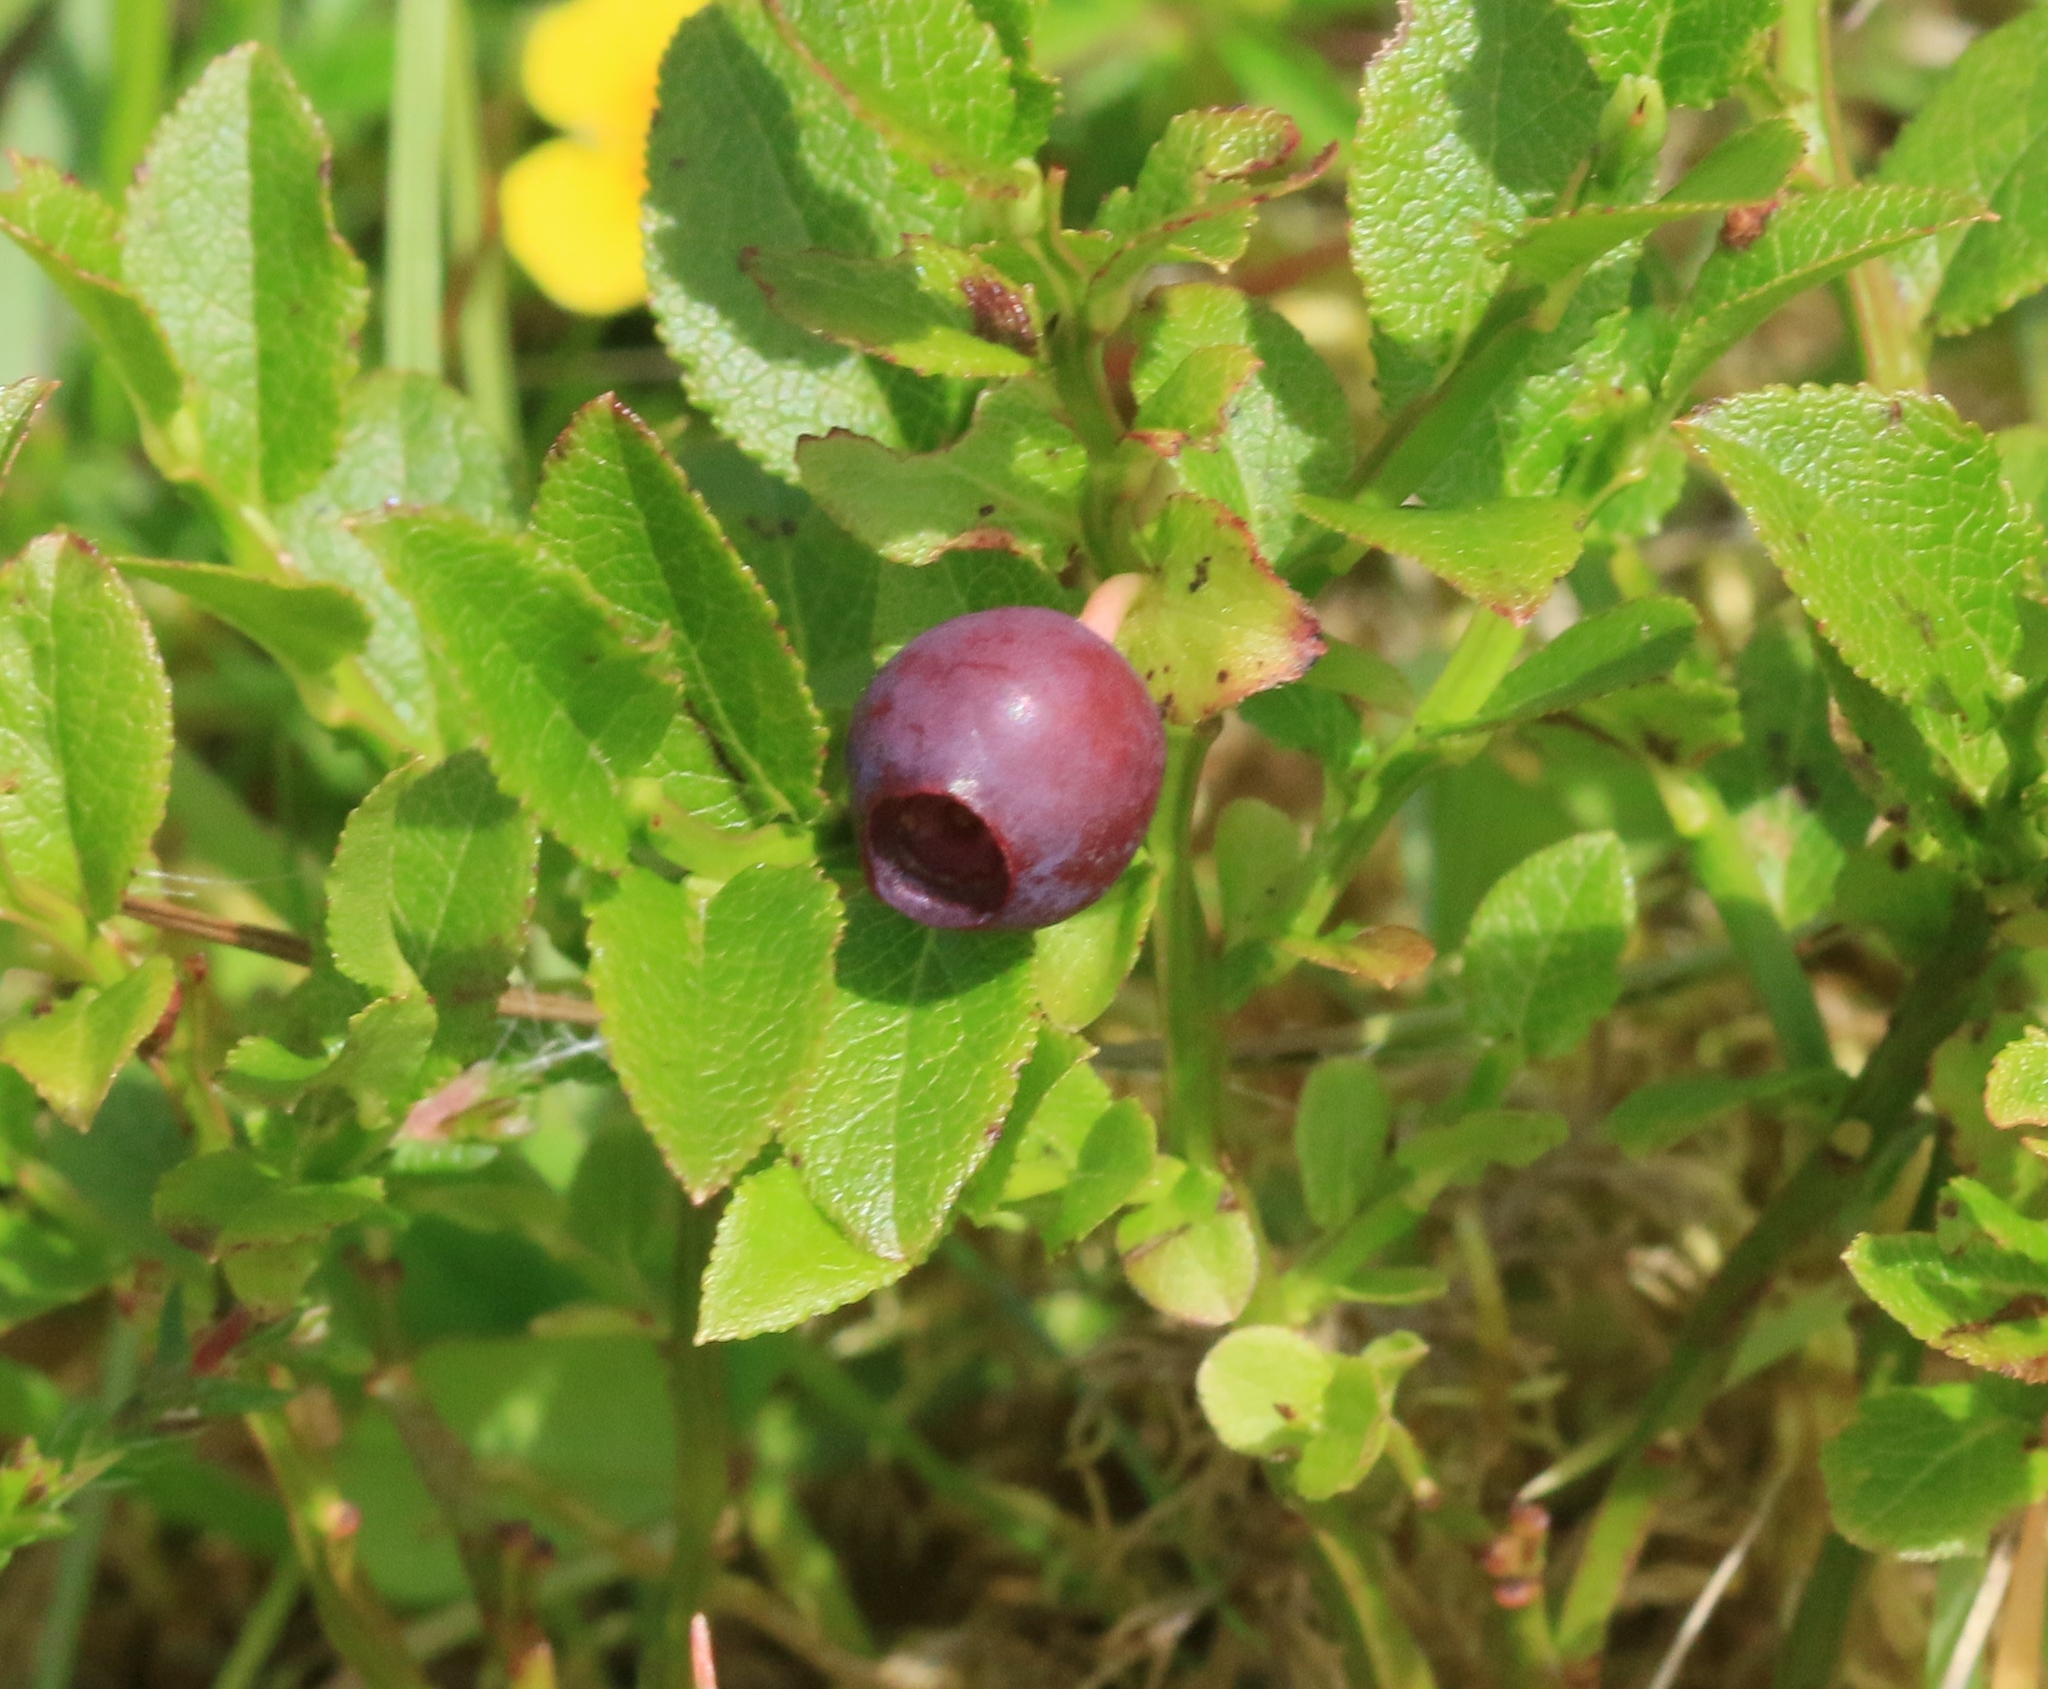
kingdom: Plantae
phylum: Tracheophyta
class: Magnoliopsida
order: Ericales
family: Ericaceae
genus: Vaccinium
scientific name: Vaccinium myrtillus
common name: Bilberry
